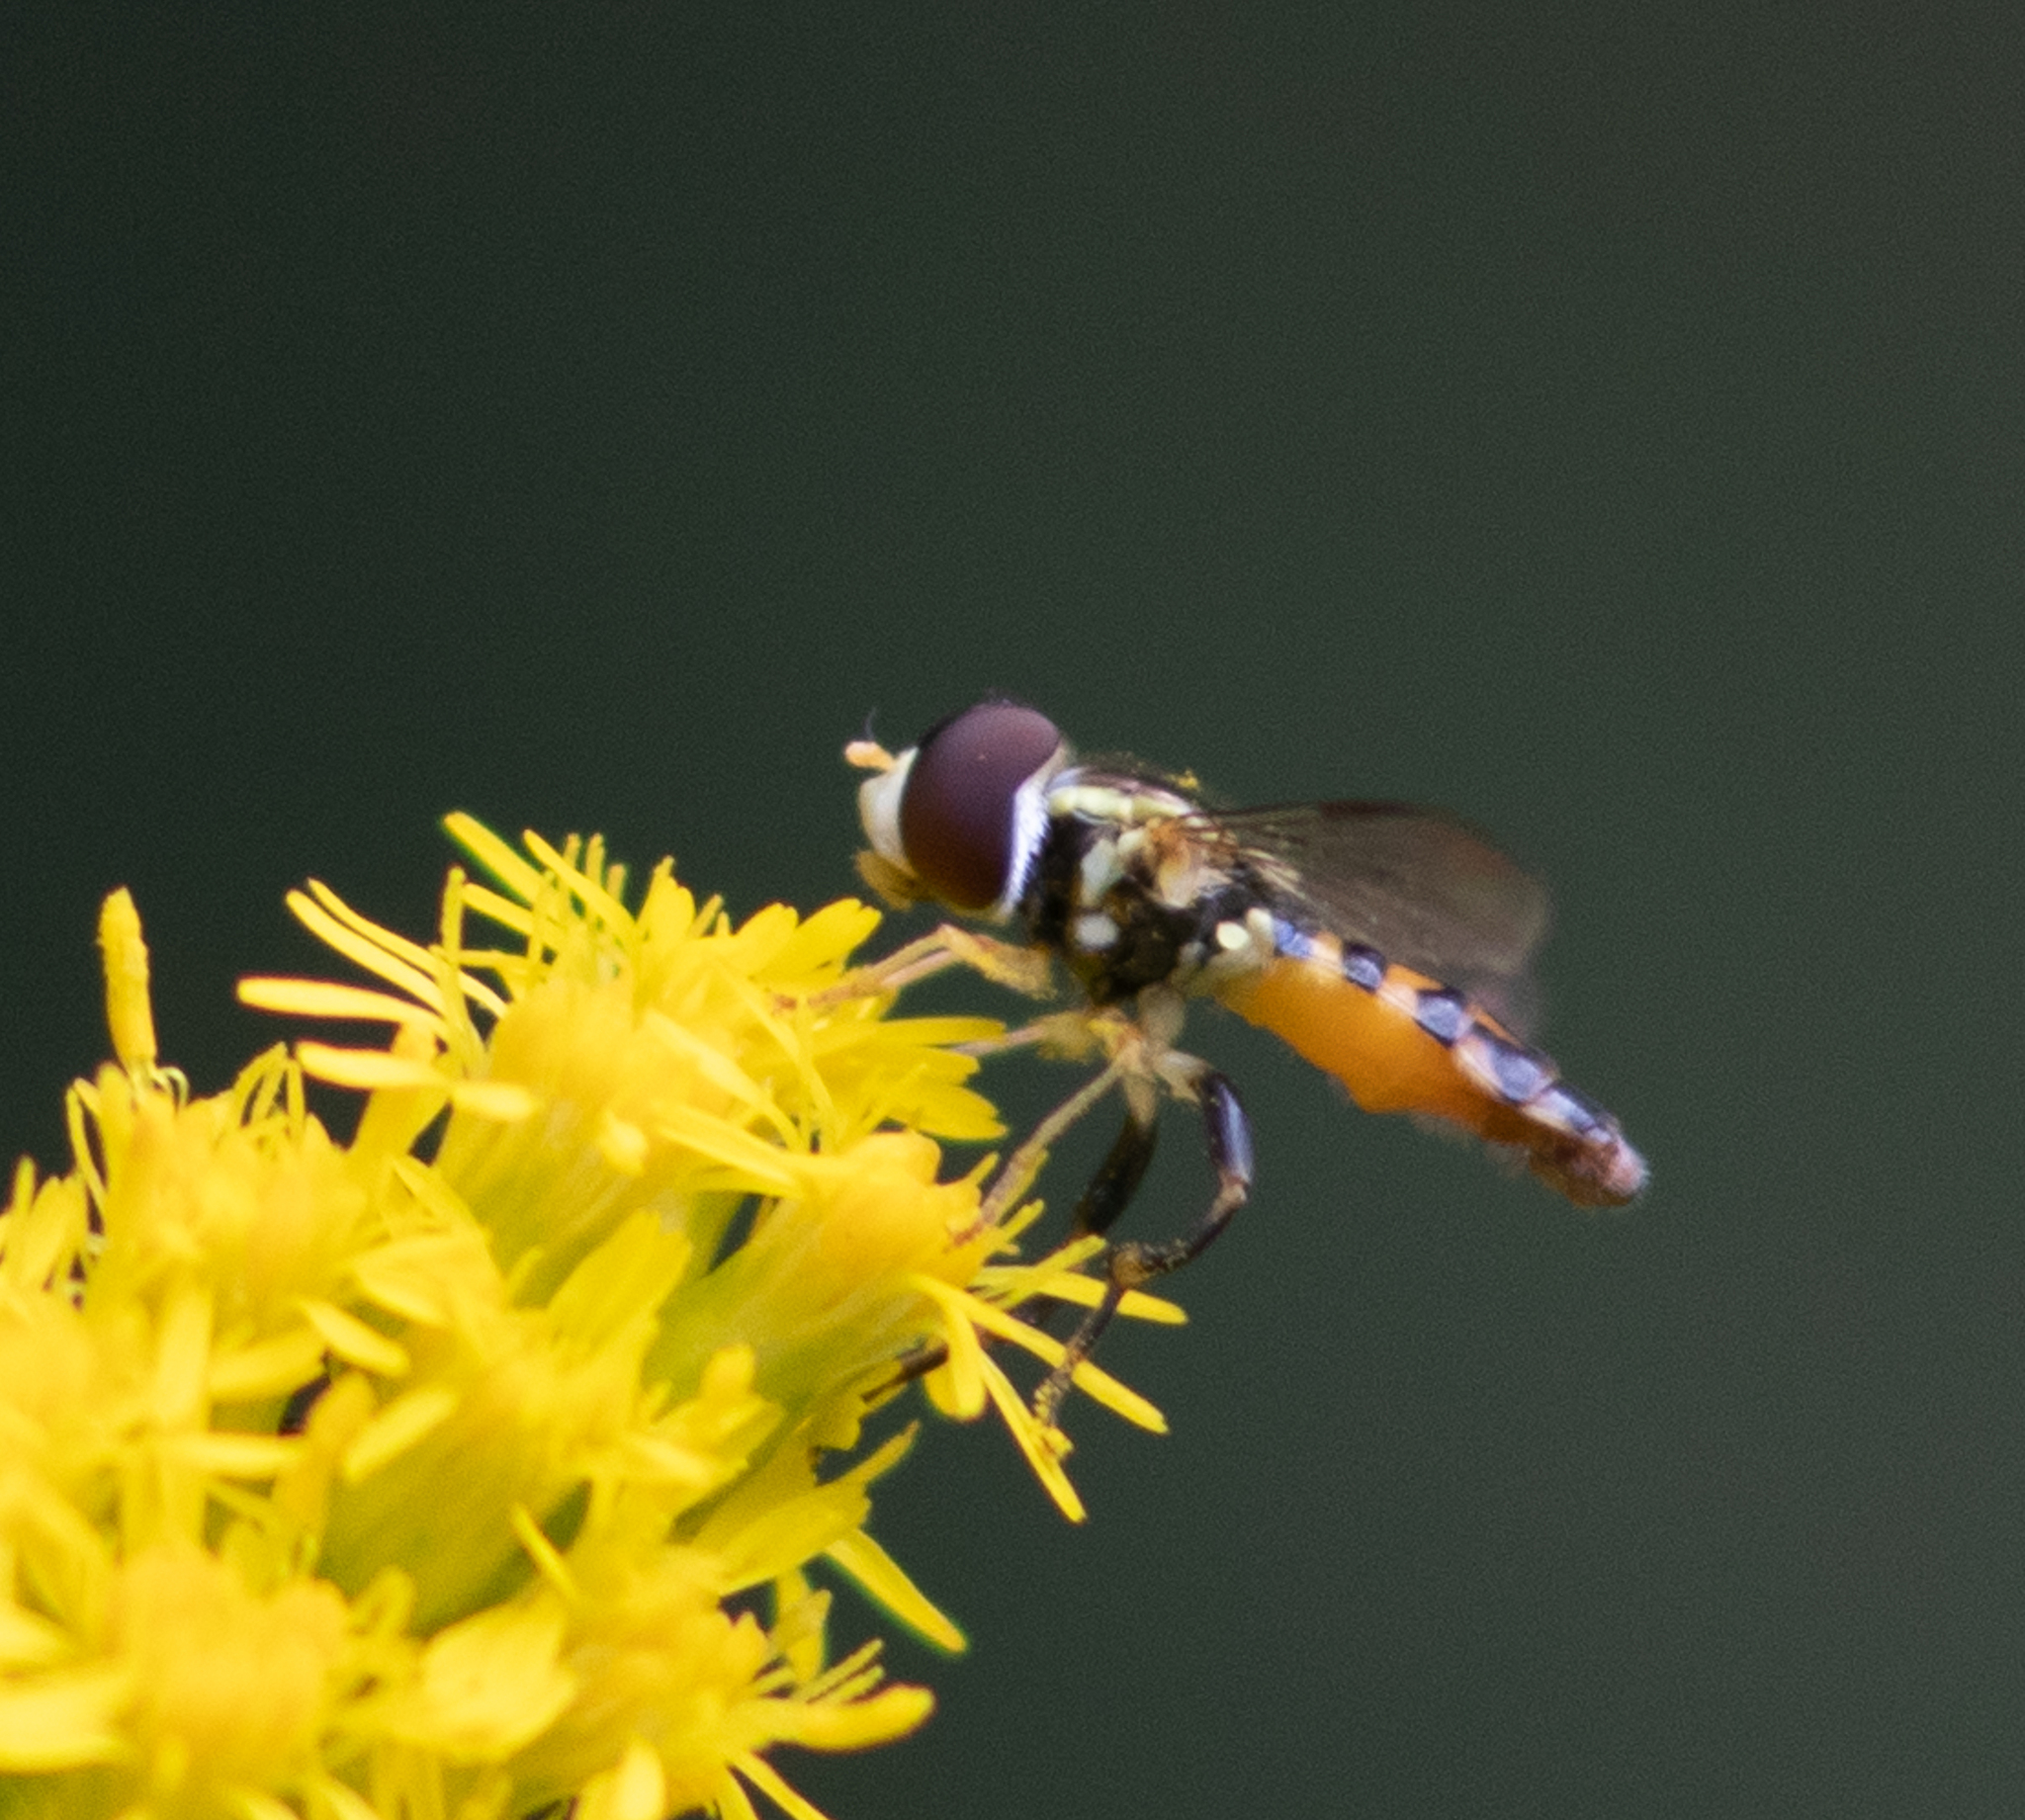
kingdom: Animalia
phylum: Arthropoda
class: Insecta
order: Diptera
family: Syrphidae
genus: Toxomerus
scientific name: Toxomerus geminatus
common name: Eastern calligrapher
